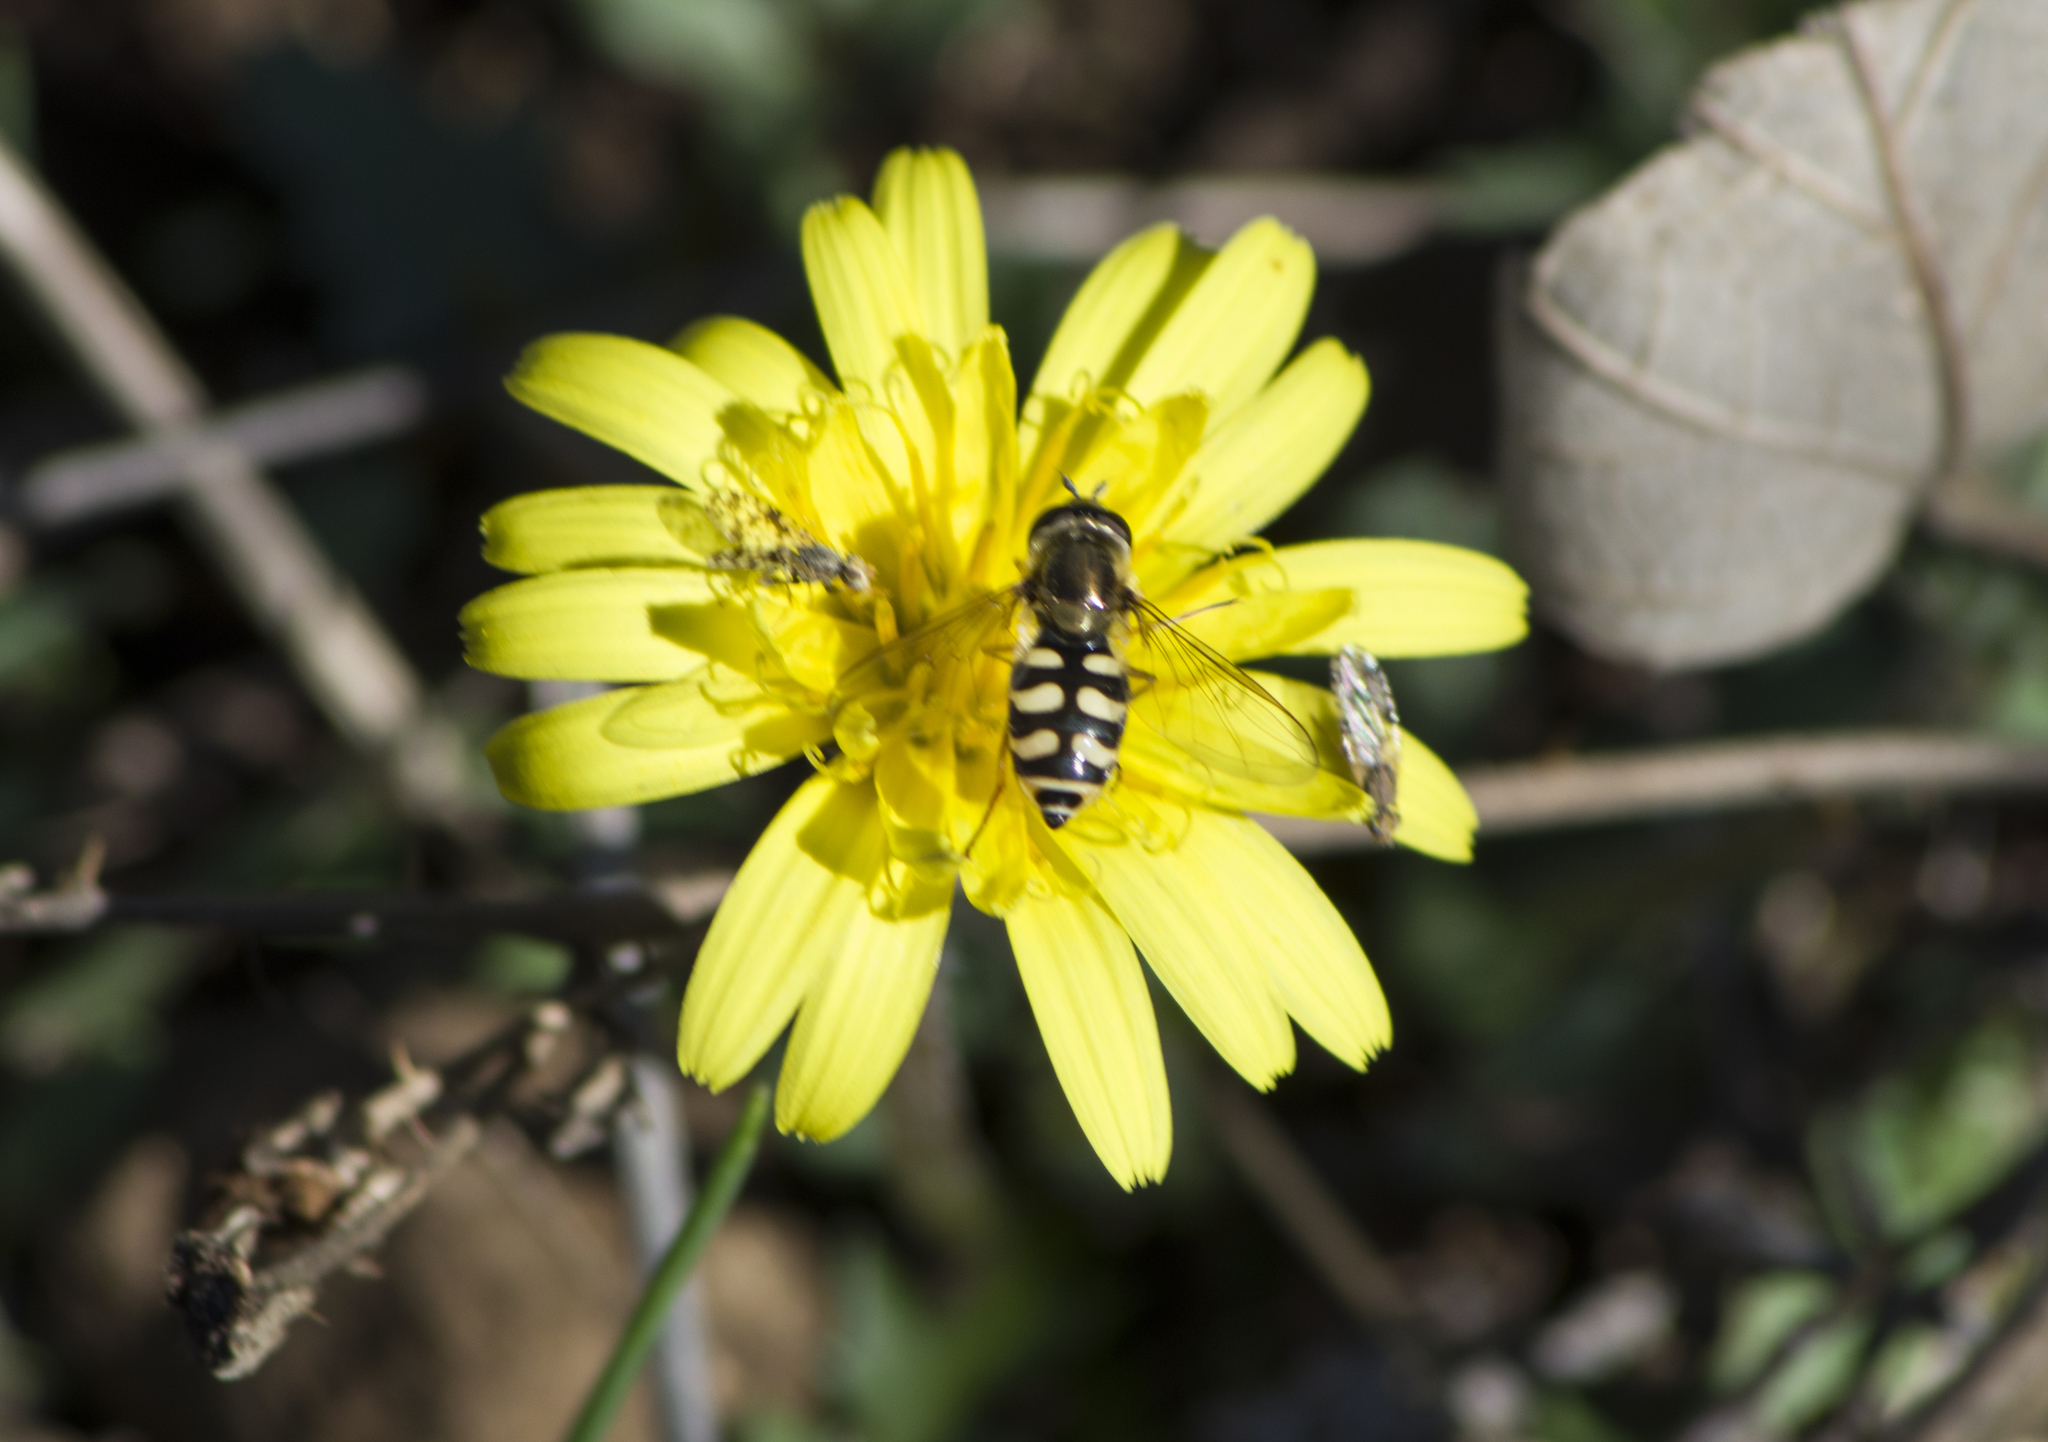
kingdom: Animalia
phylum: Arthropoda
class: Insecta
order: Diptera
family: Syrphidae
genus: Eupeodes
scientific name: Eupeodes corollae
